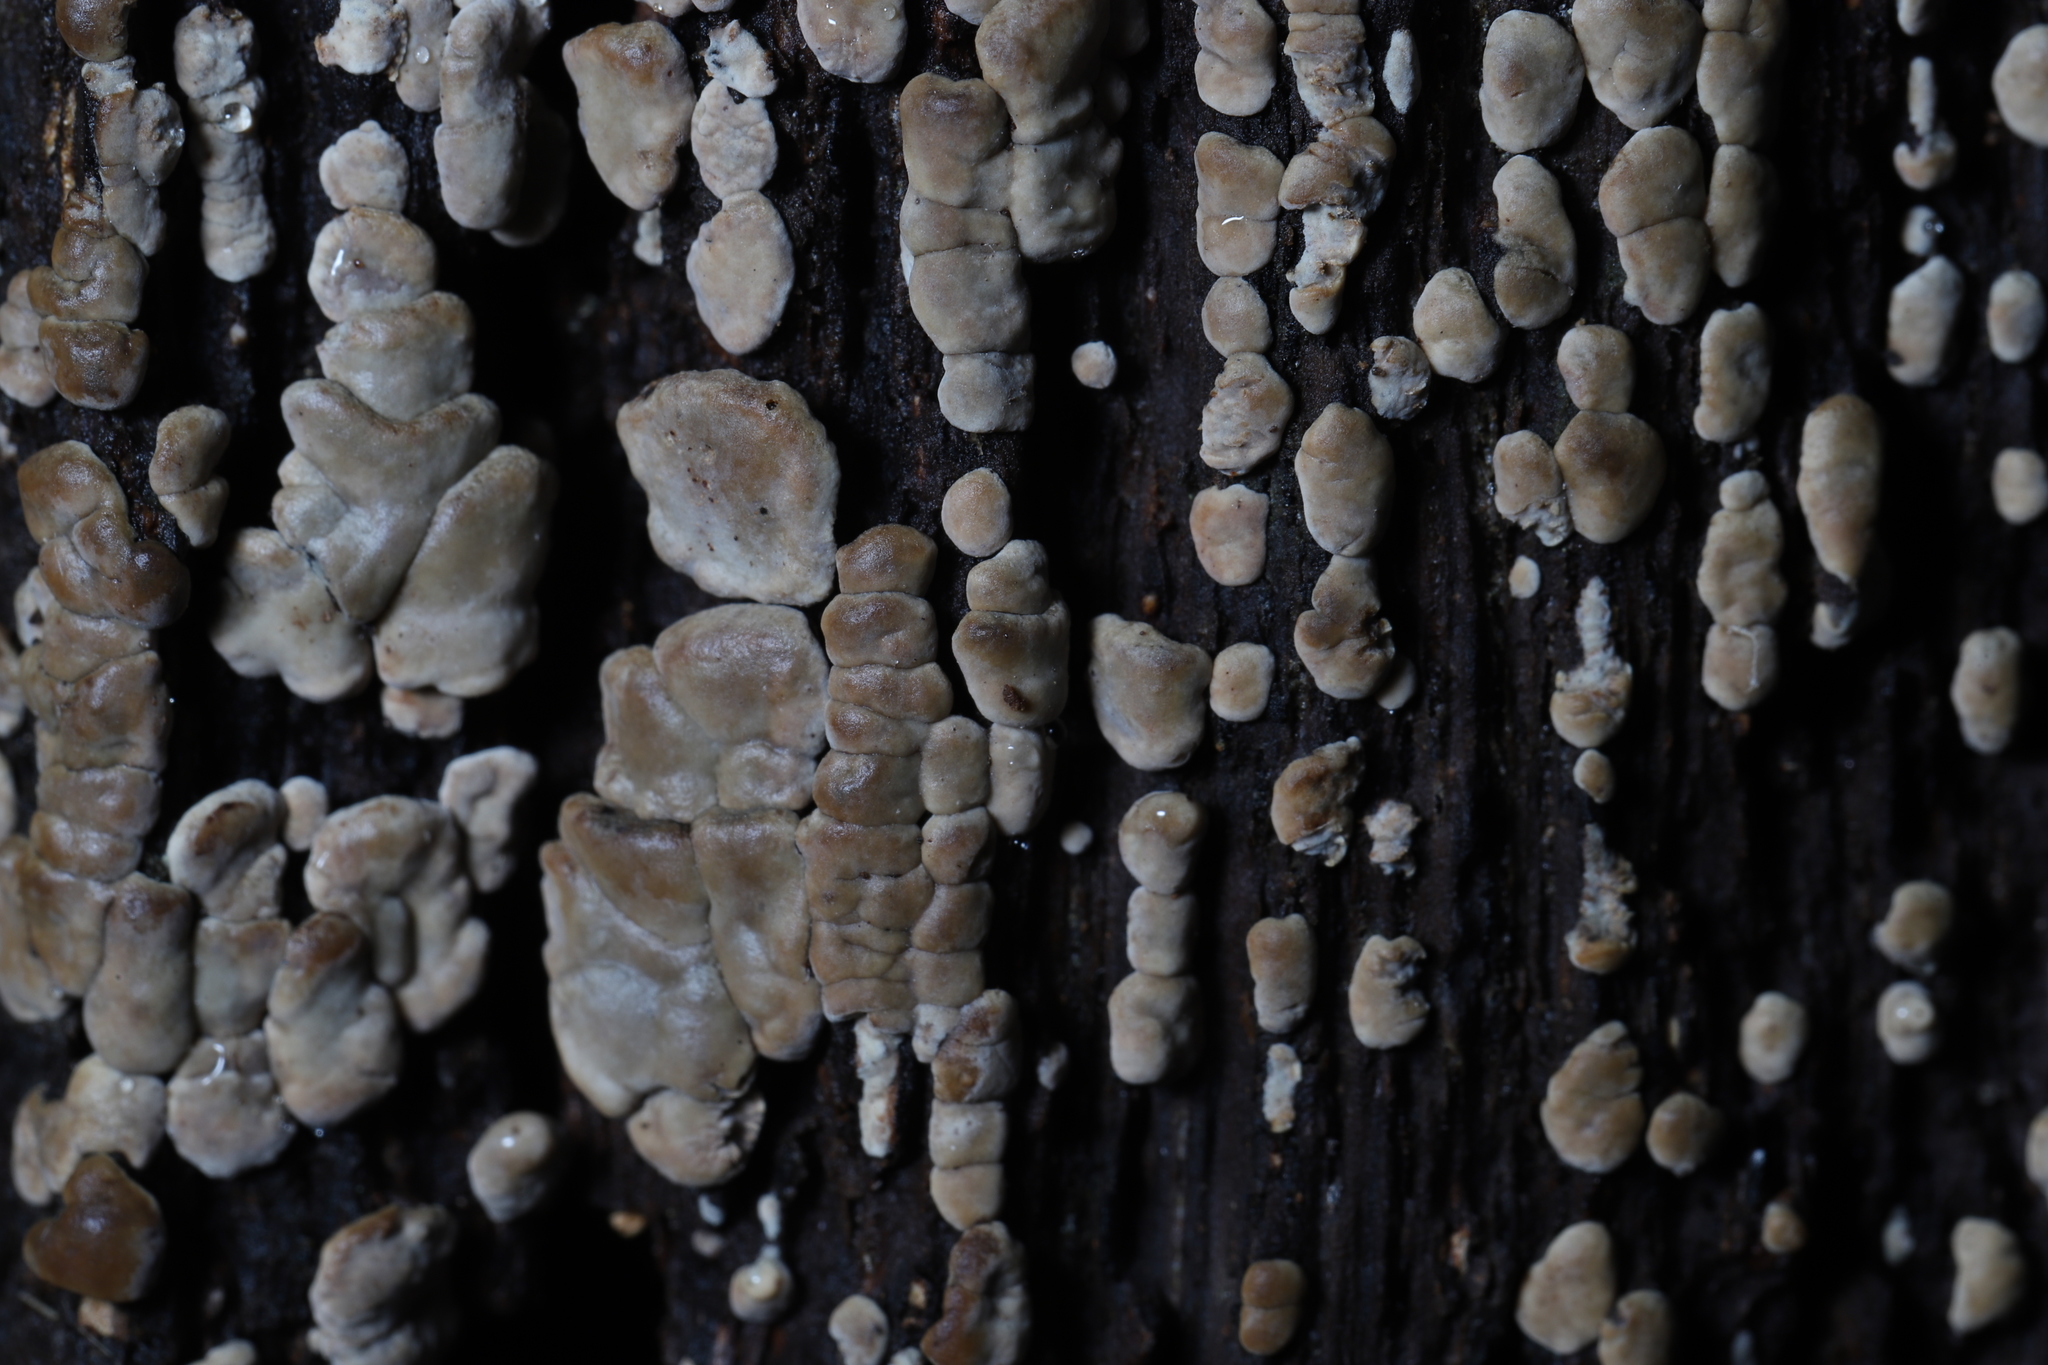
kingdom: Fungi
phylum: Basidiomycota
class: Agaricomycetes
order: Russulales
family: Stereaceae
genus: Xylobolus
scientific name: Xylobolus frustulatus
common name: Ceramic parchment
